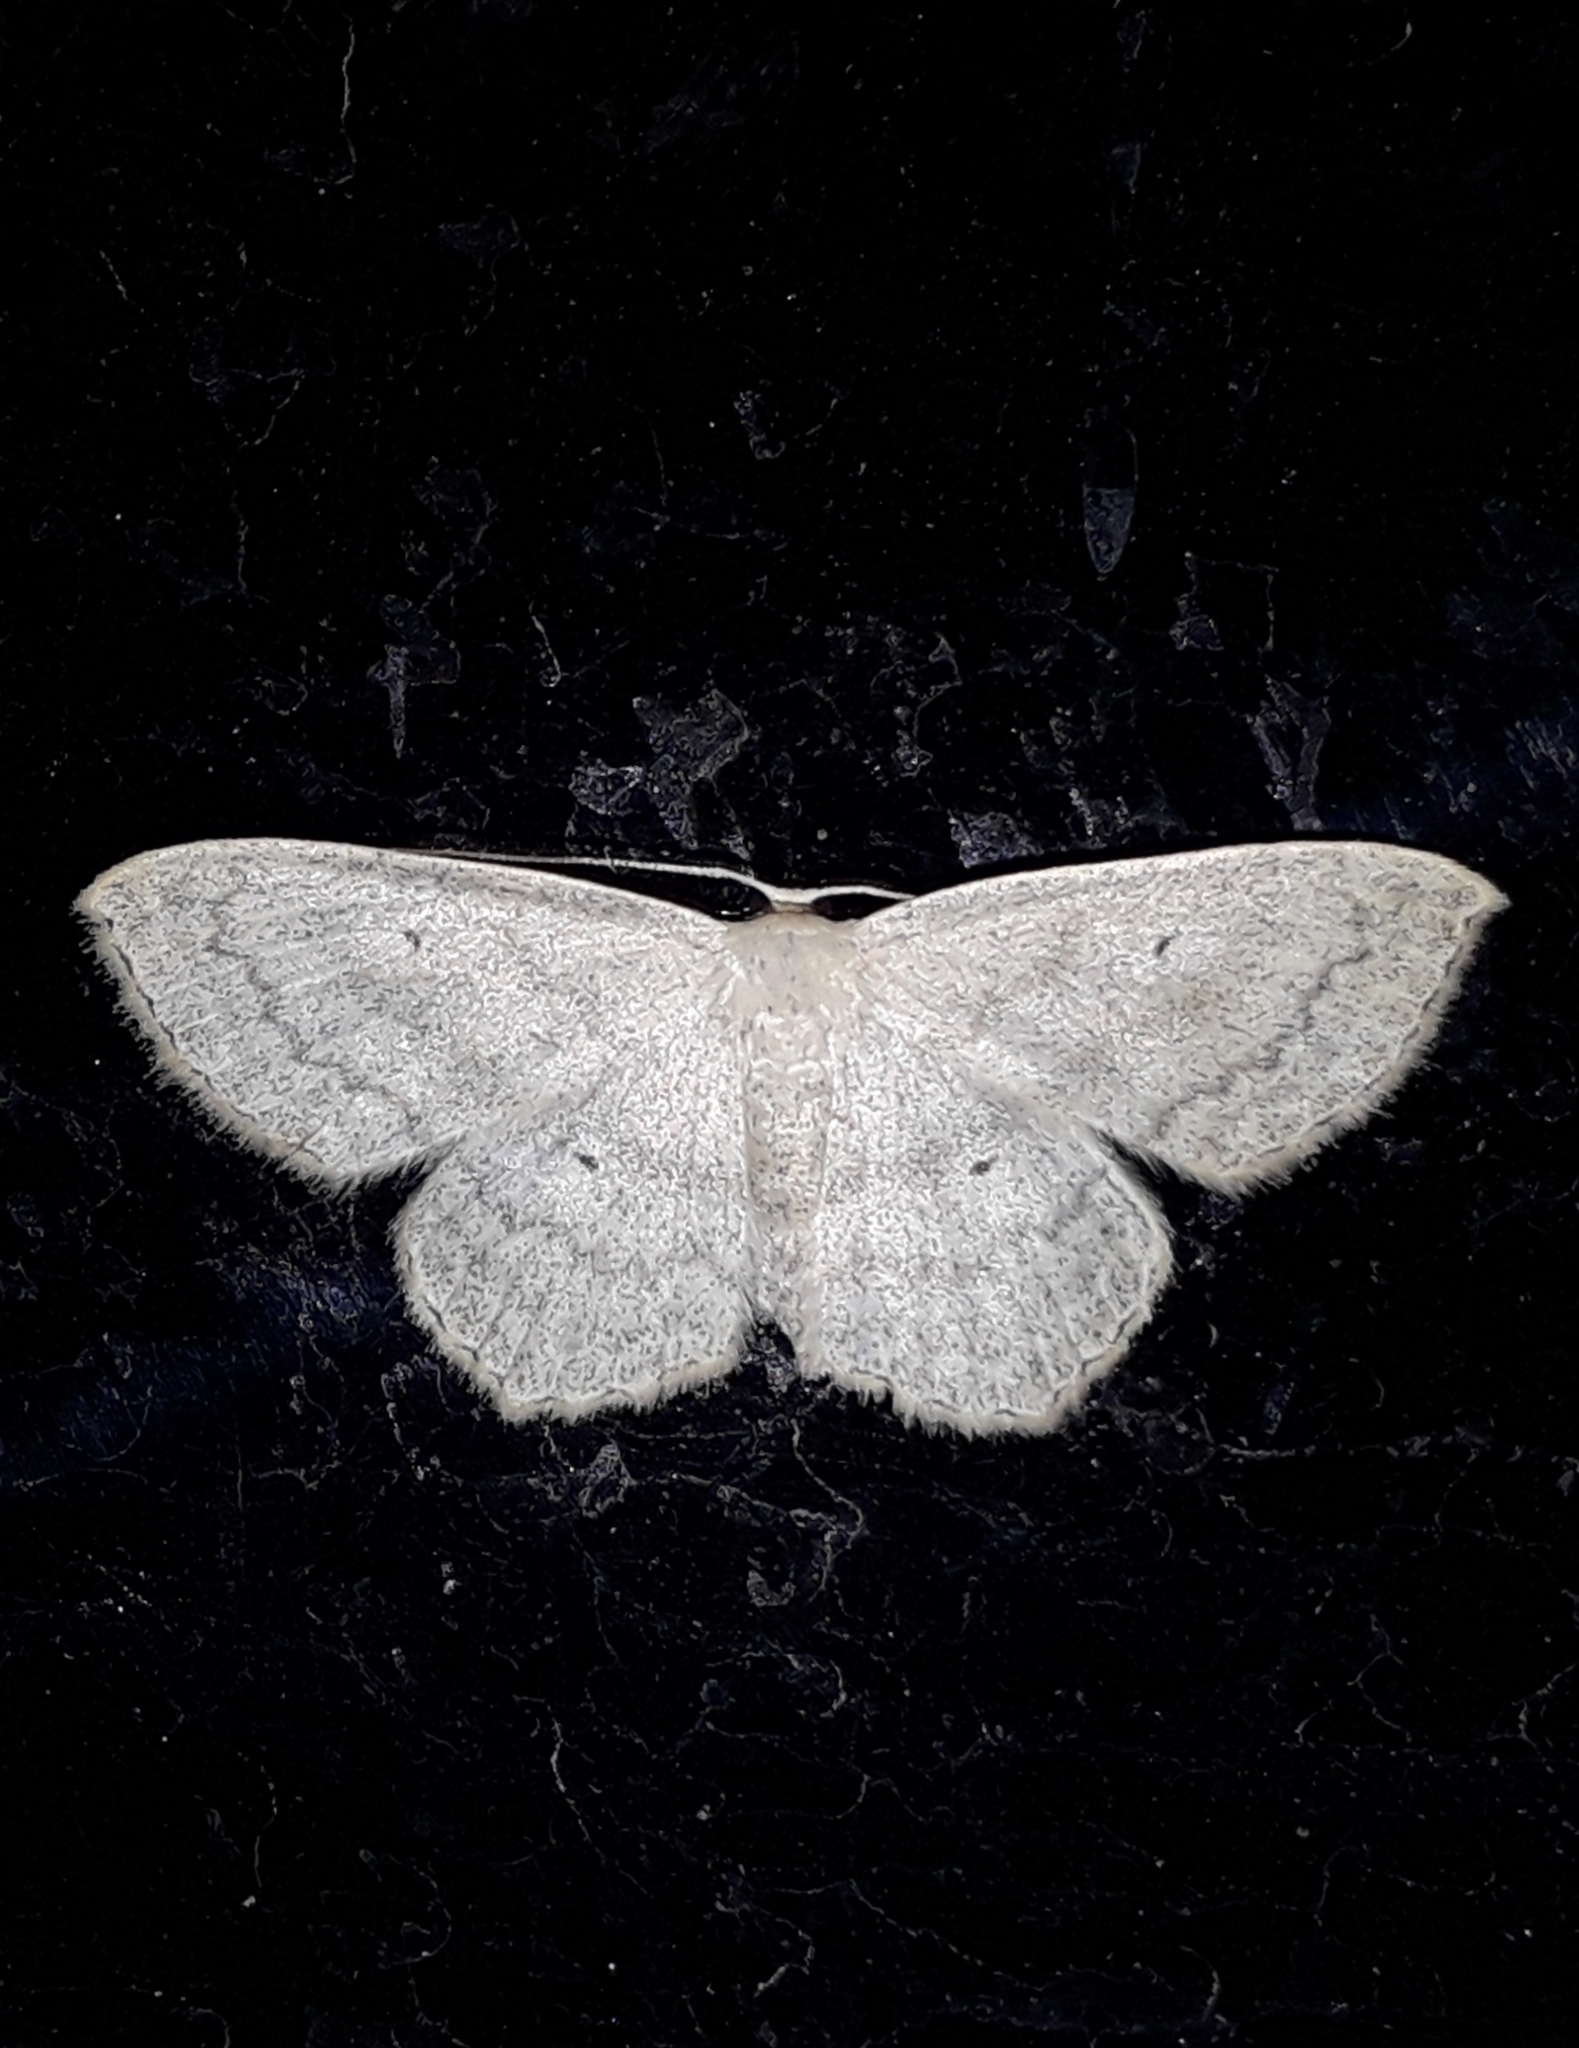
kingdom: Animalia
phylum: Arthropoda
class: Insecta
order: Lepidoptera
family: Geometridae
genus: Scopula
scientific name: Scopula nigropunctata
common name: Sub-angled wave
